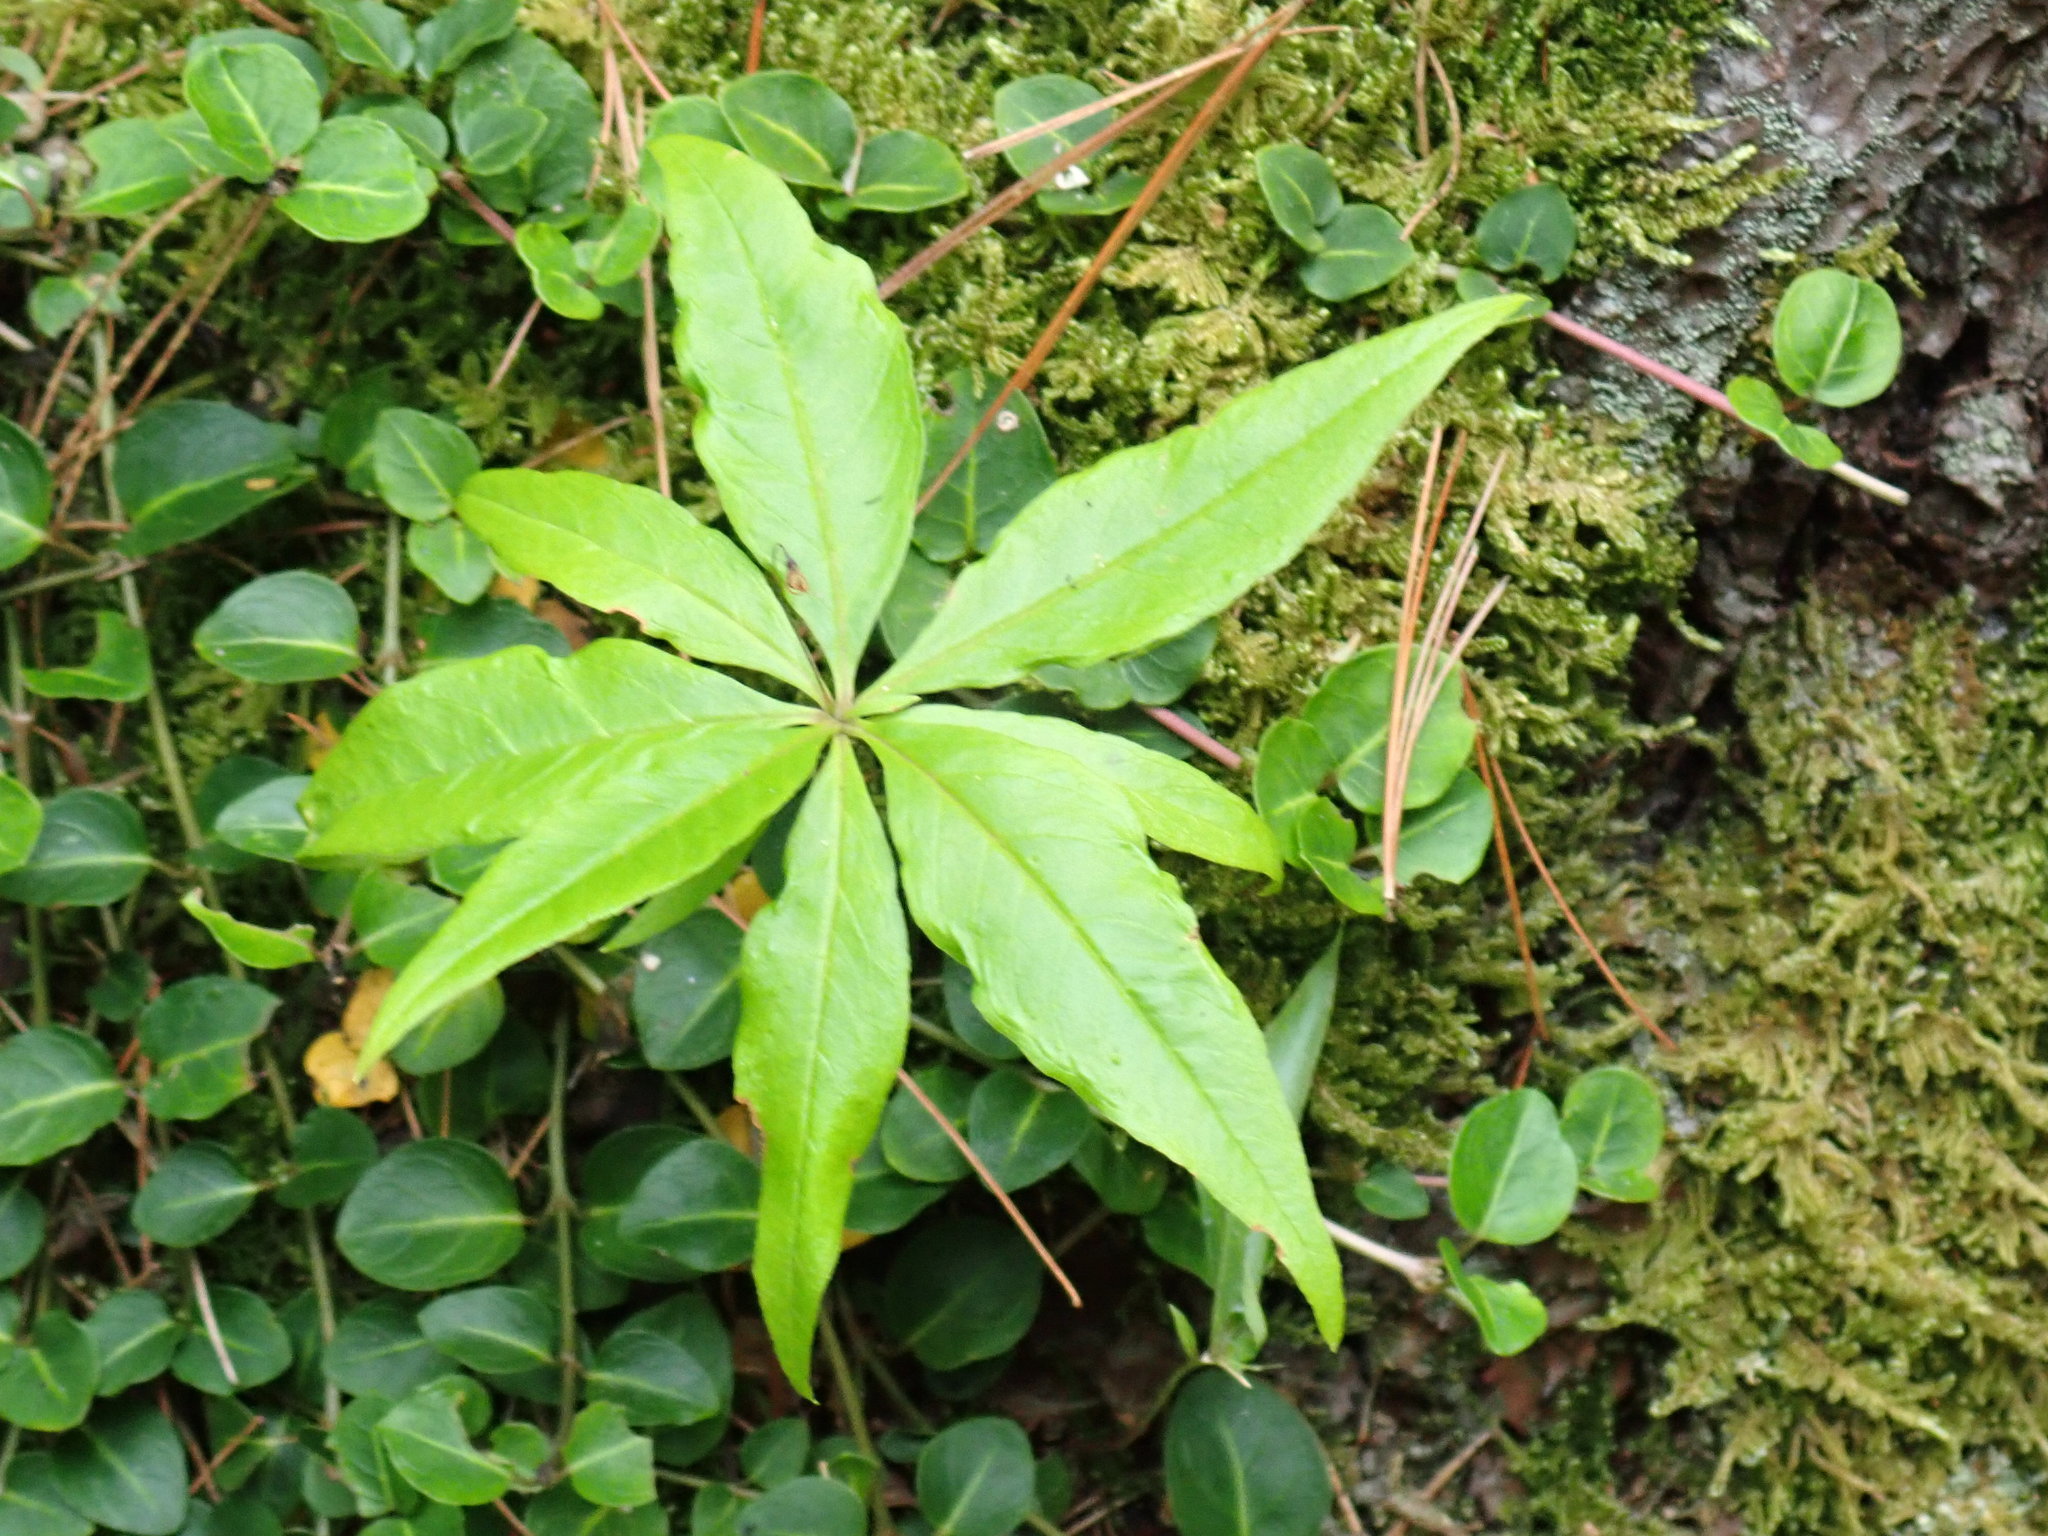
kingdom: Plantae
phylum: Tracheophyta
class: Magnoliopsida
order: Ericales
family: Primulaceae
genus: Lysimachia
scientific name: Lysimachia borealis
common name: American starflower
